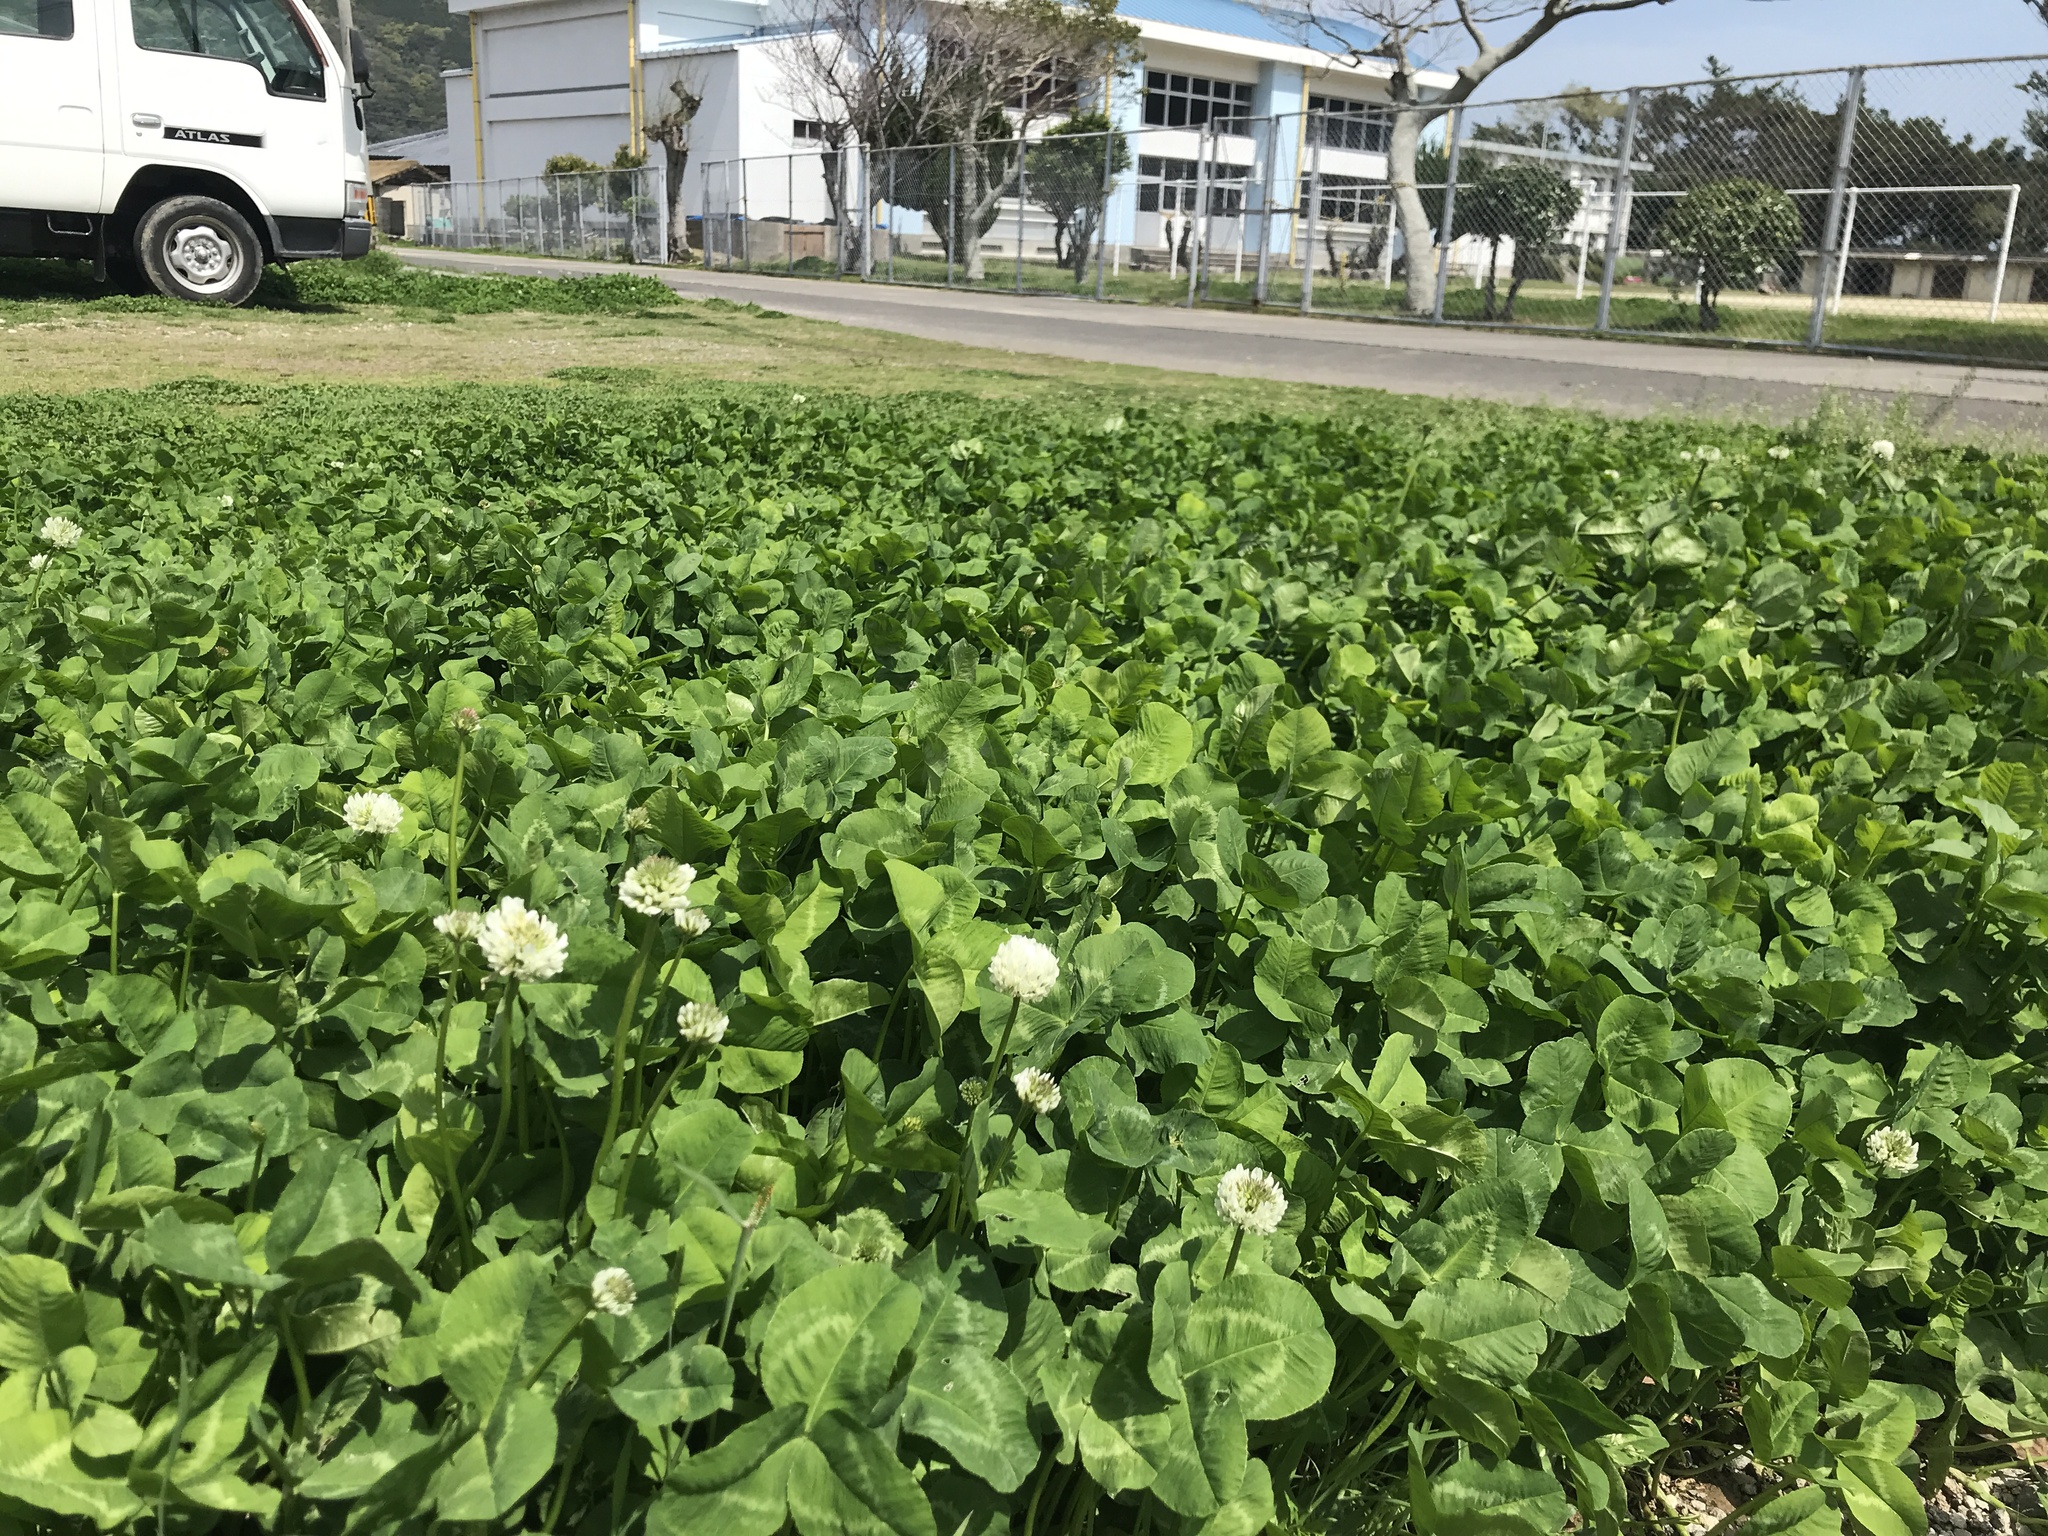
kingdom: Plantae
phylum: Tracheophyta
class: Magnoliopsida
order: Fabales
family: Fabaceae
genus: Trifolium
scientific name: Trifolium repens
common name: White clover
